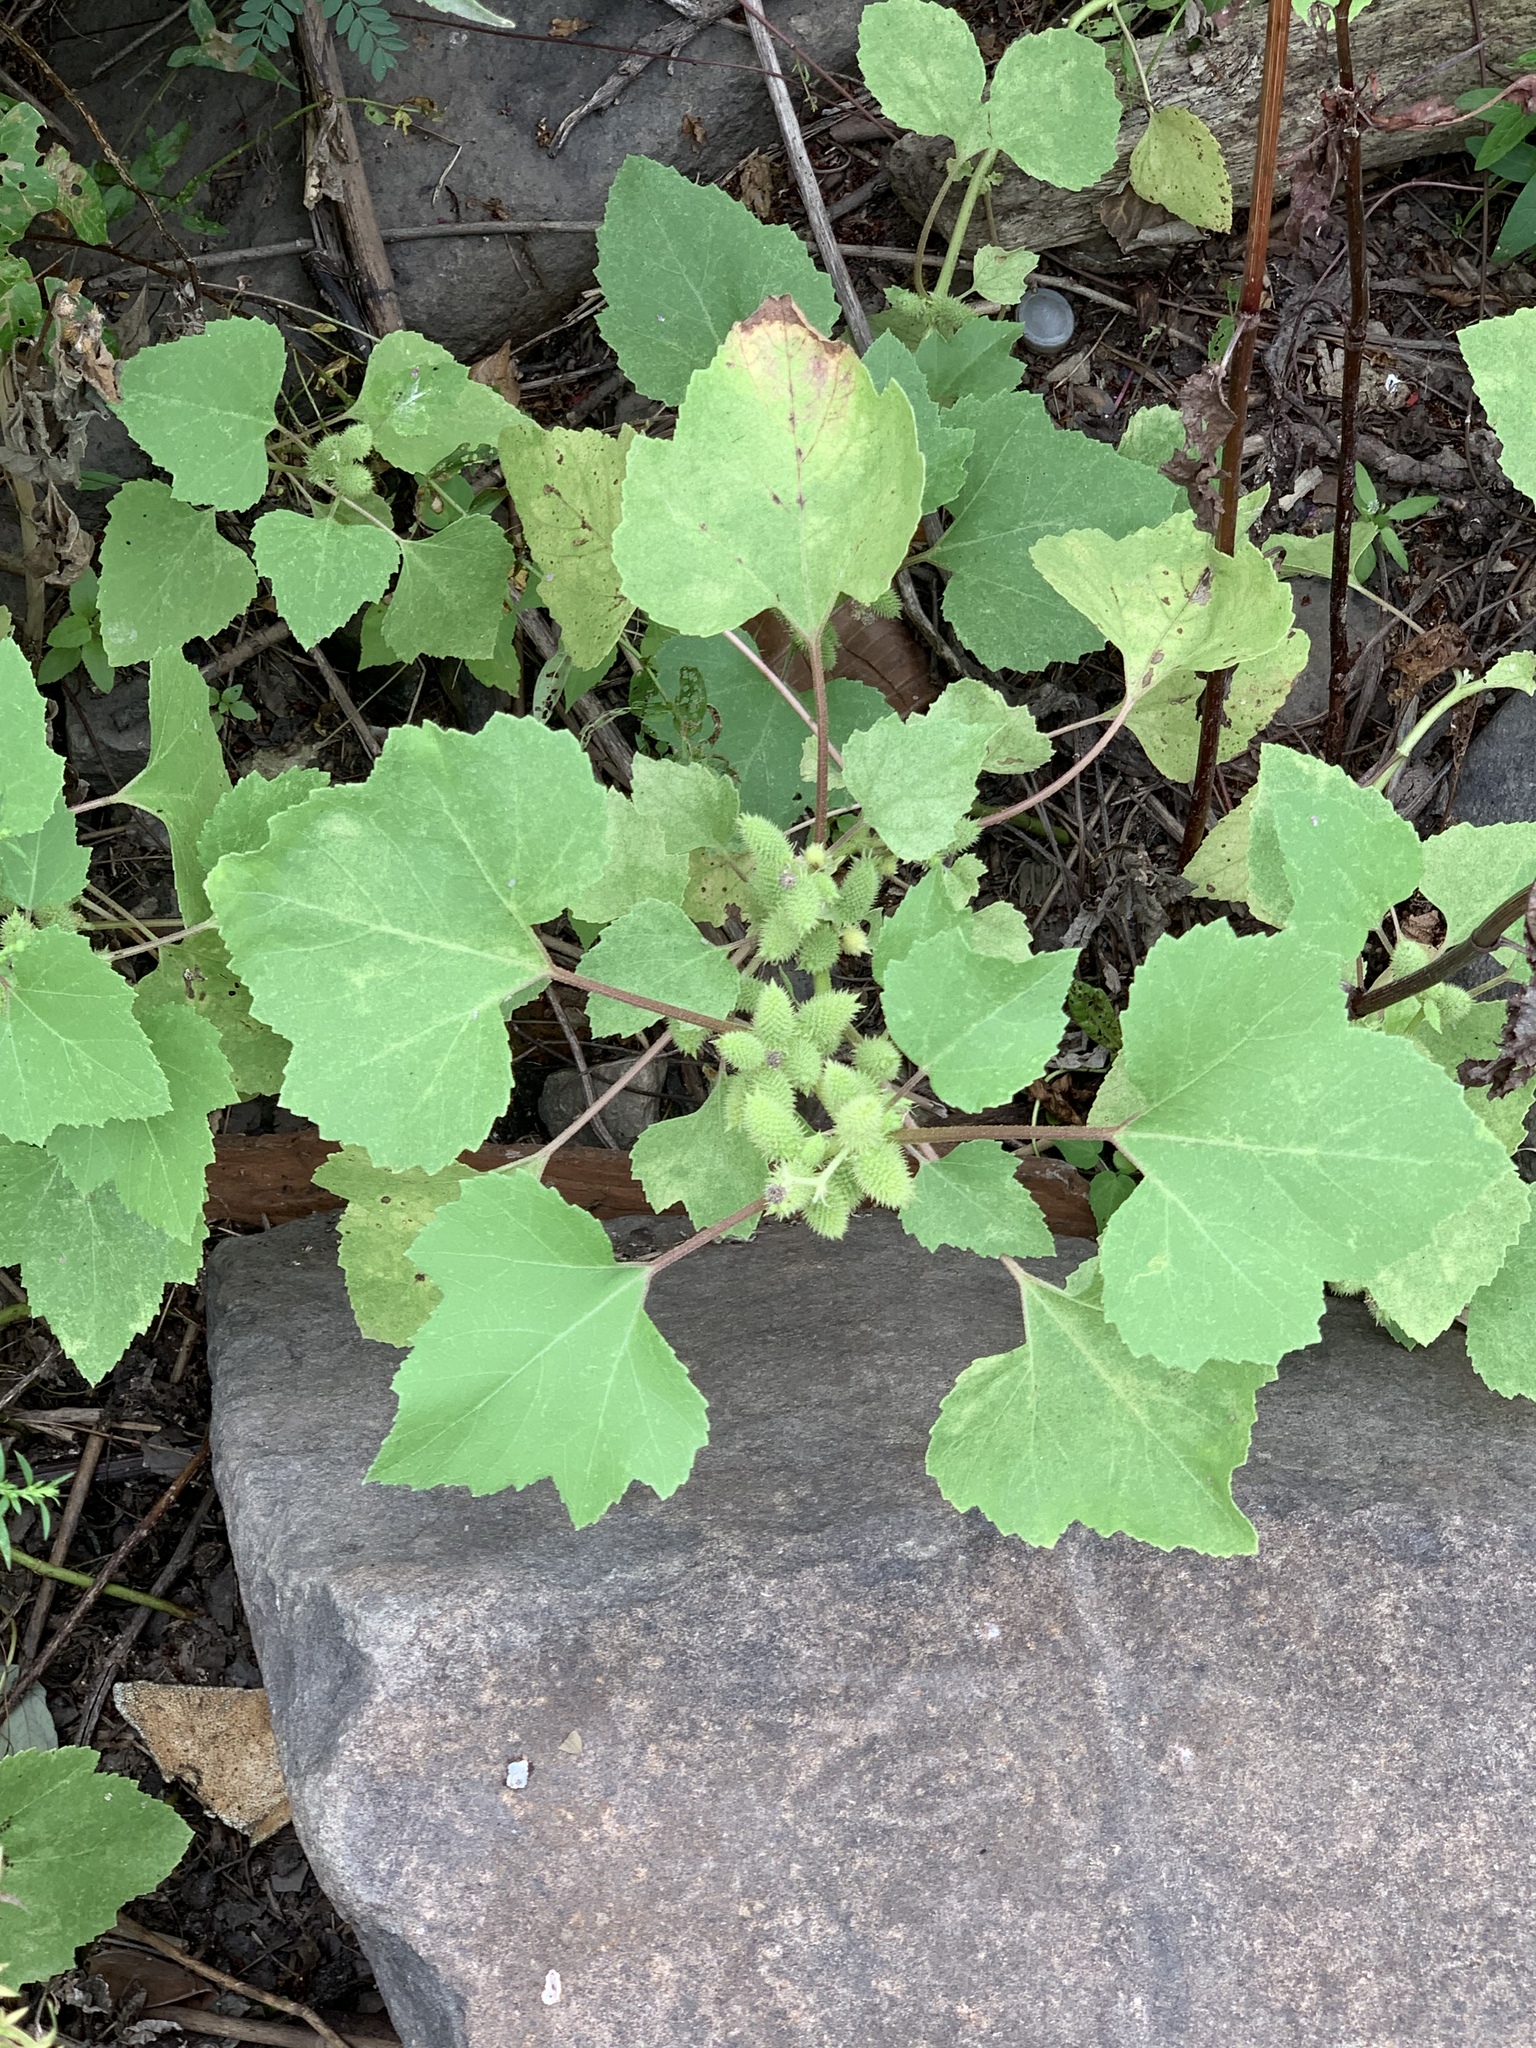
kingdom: Plantae
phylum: Tracheophyta
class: Magnoliopsida
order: Asterales
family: Asteraceae
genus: Xanthium
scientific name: Xanthium strumarium
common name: Rough cocklebur
